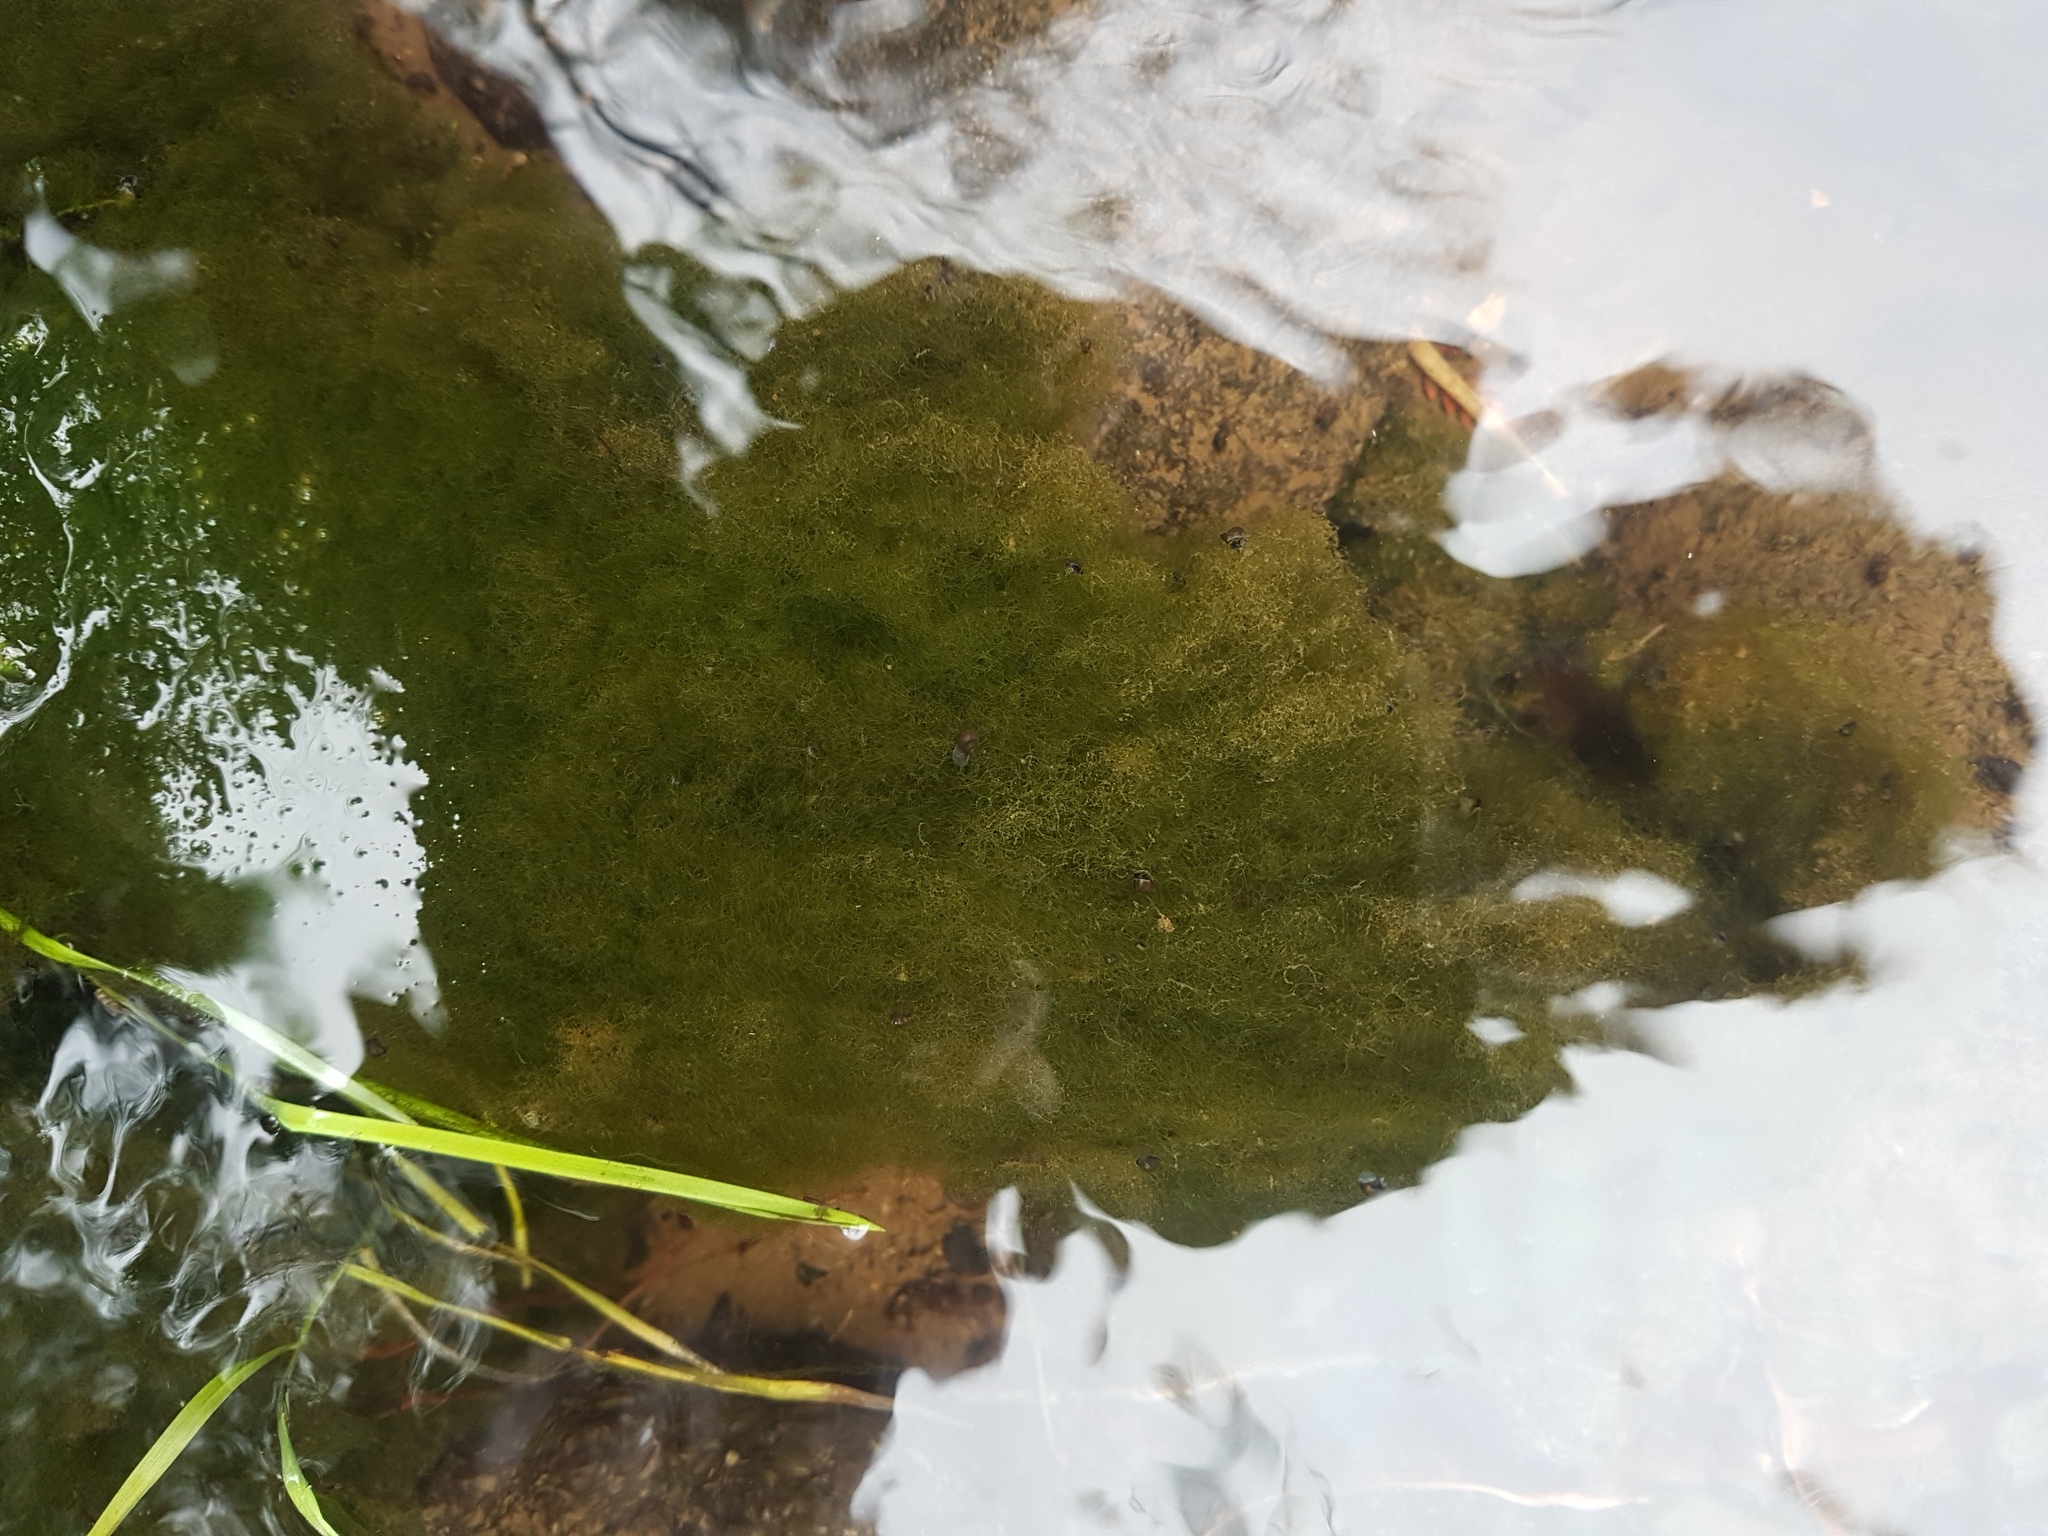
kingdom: Chromista
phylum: Ochrophyta
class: Xanthophyceae
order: Vaucheriales
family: Vaucheriaceae
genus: Vaucheria
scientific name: Vaucheria
